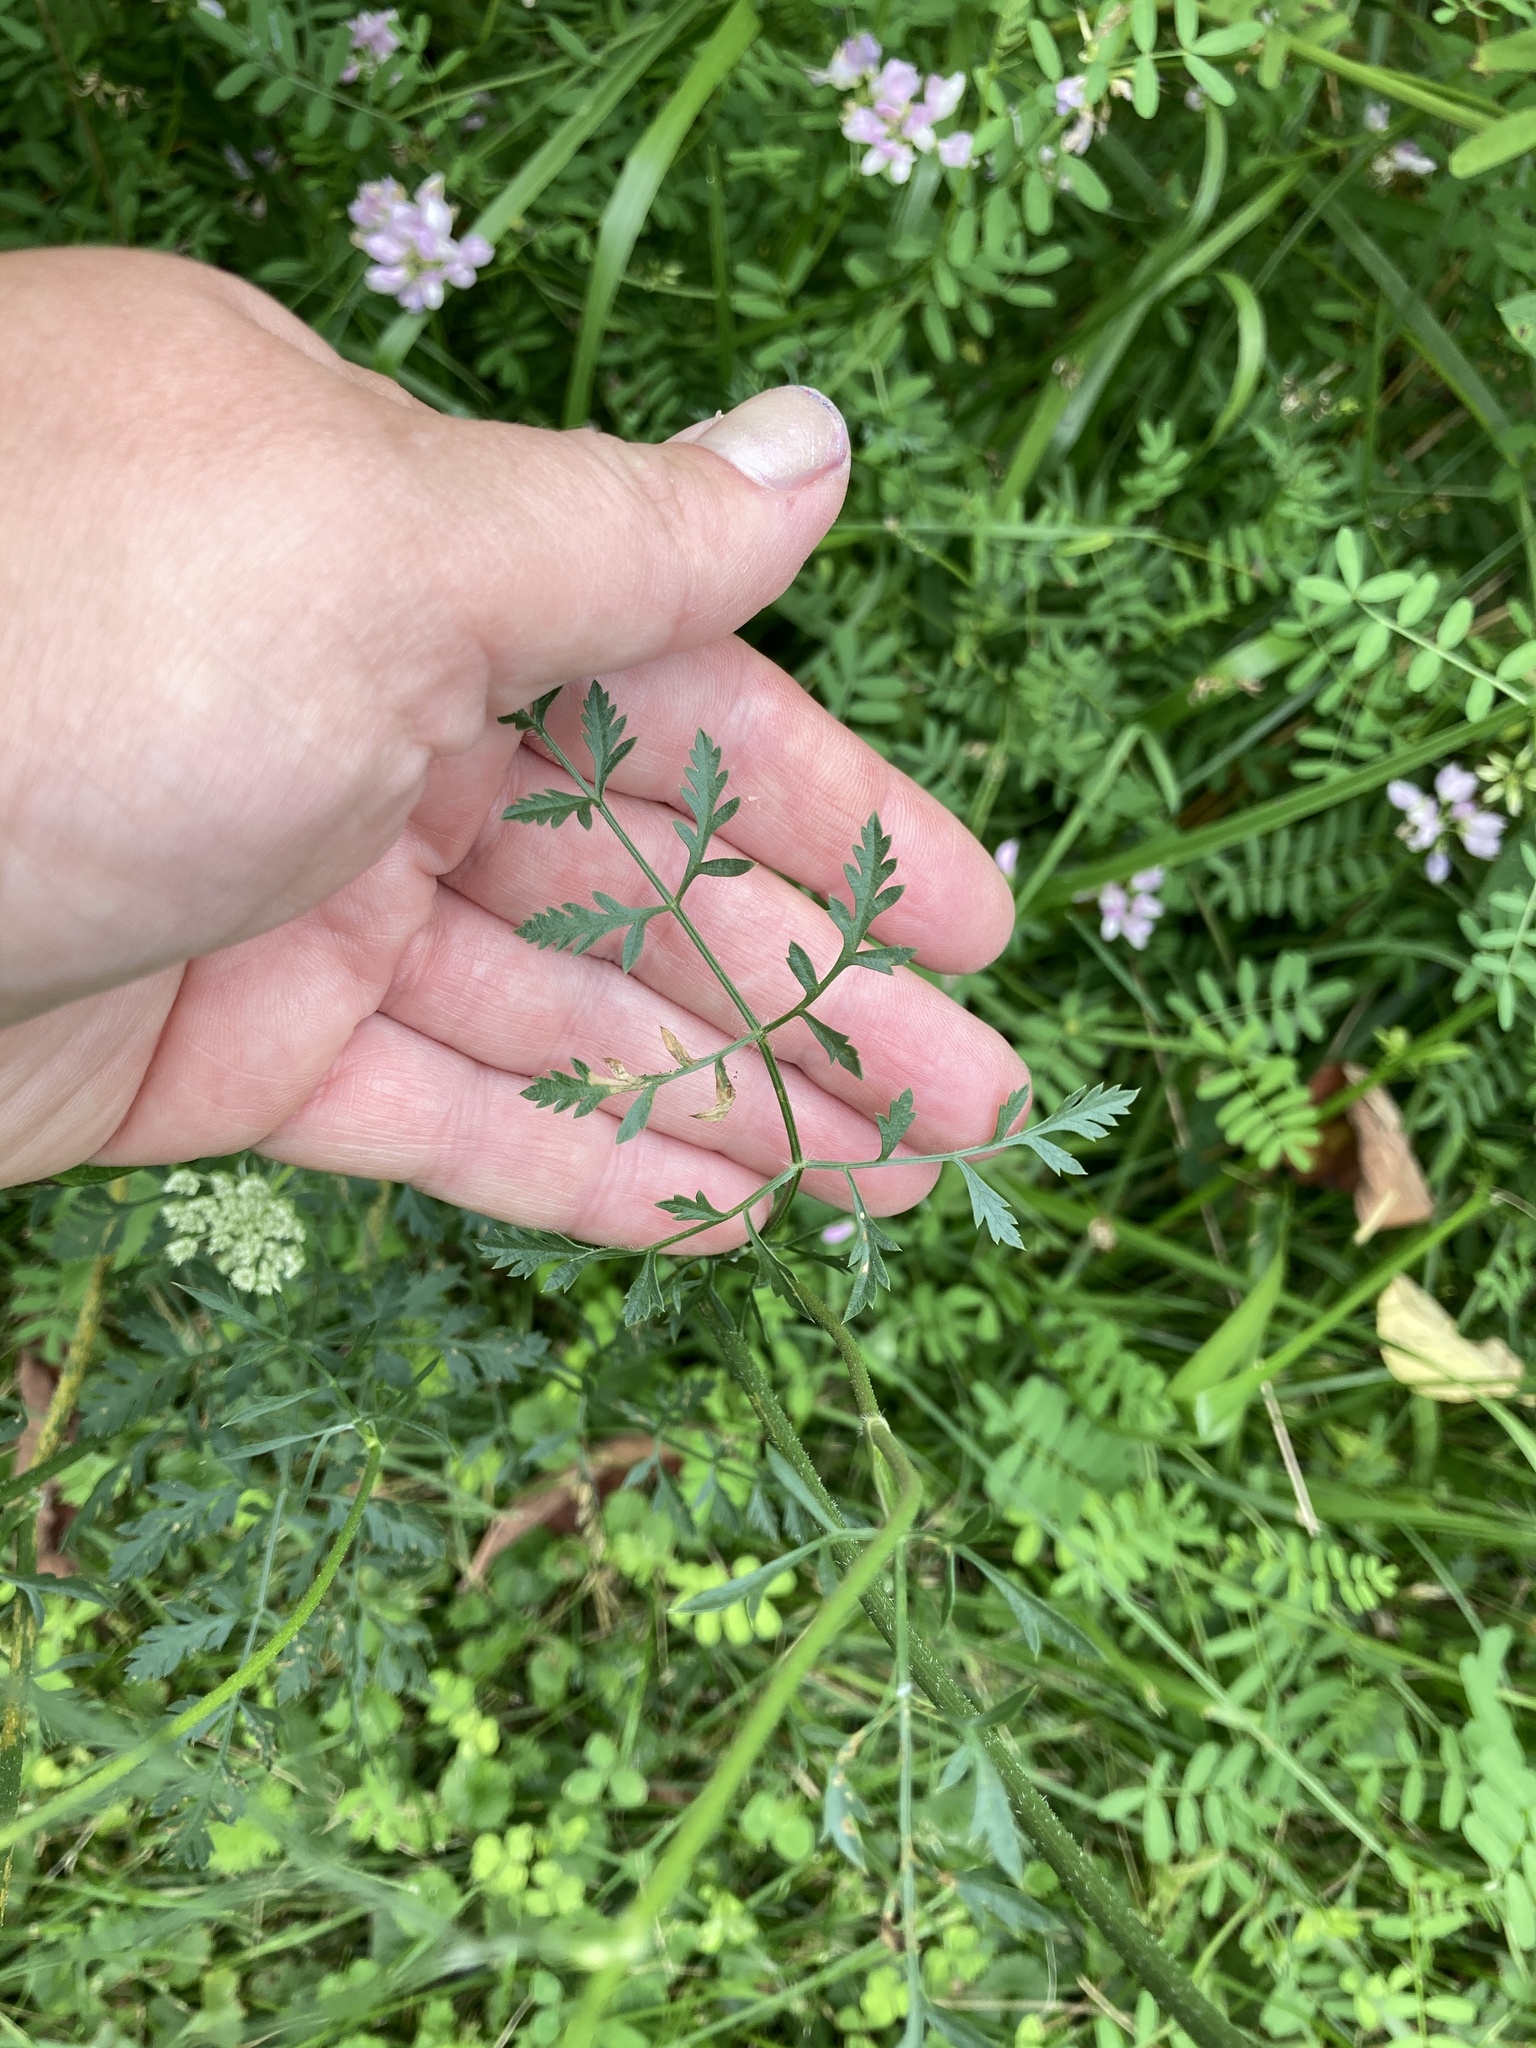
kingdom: Plantae
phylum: Tracheophyta
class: Magnoliopsida
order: Apiales
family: Apiaceae
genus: Daucus
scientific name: Daucus carota
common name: Wild carrot
